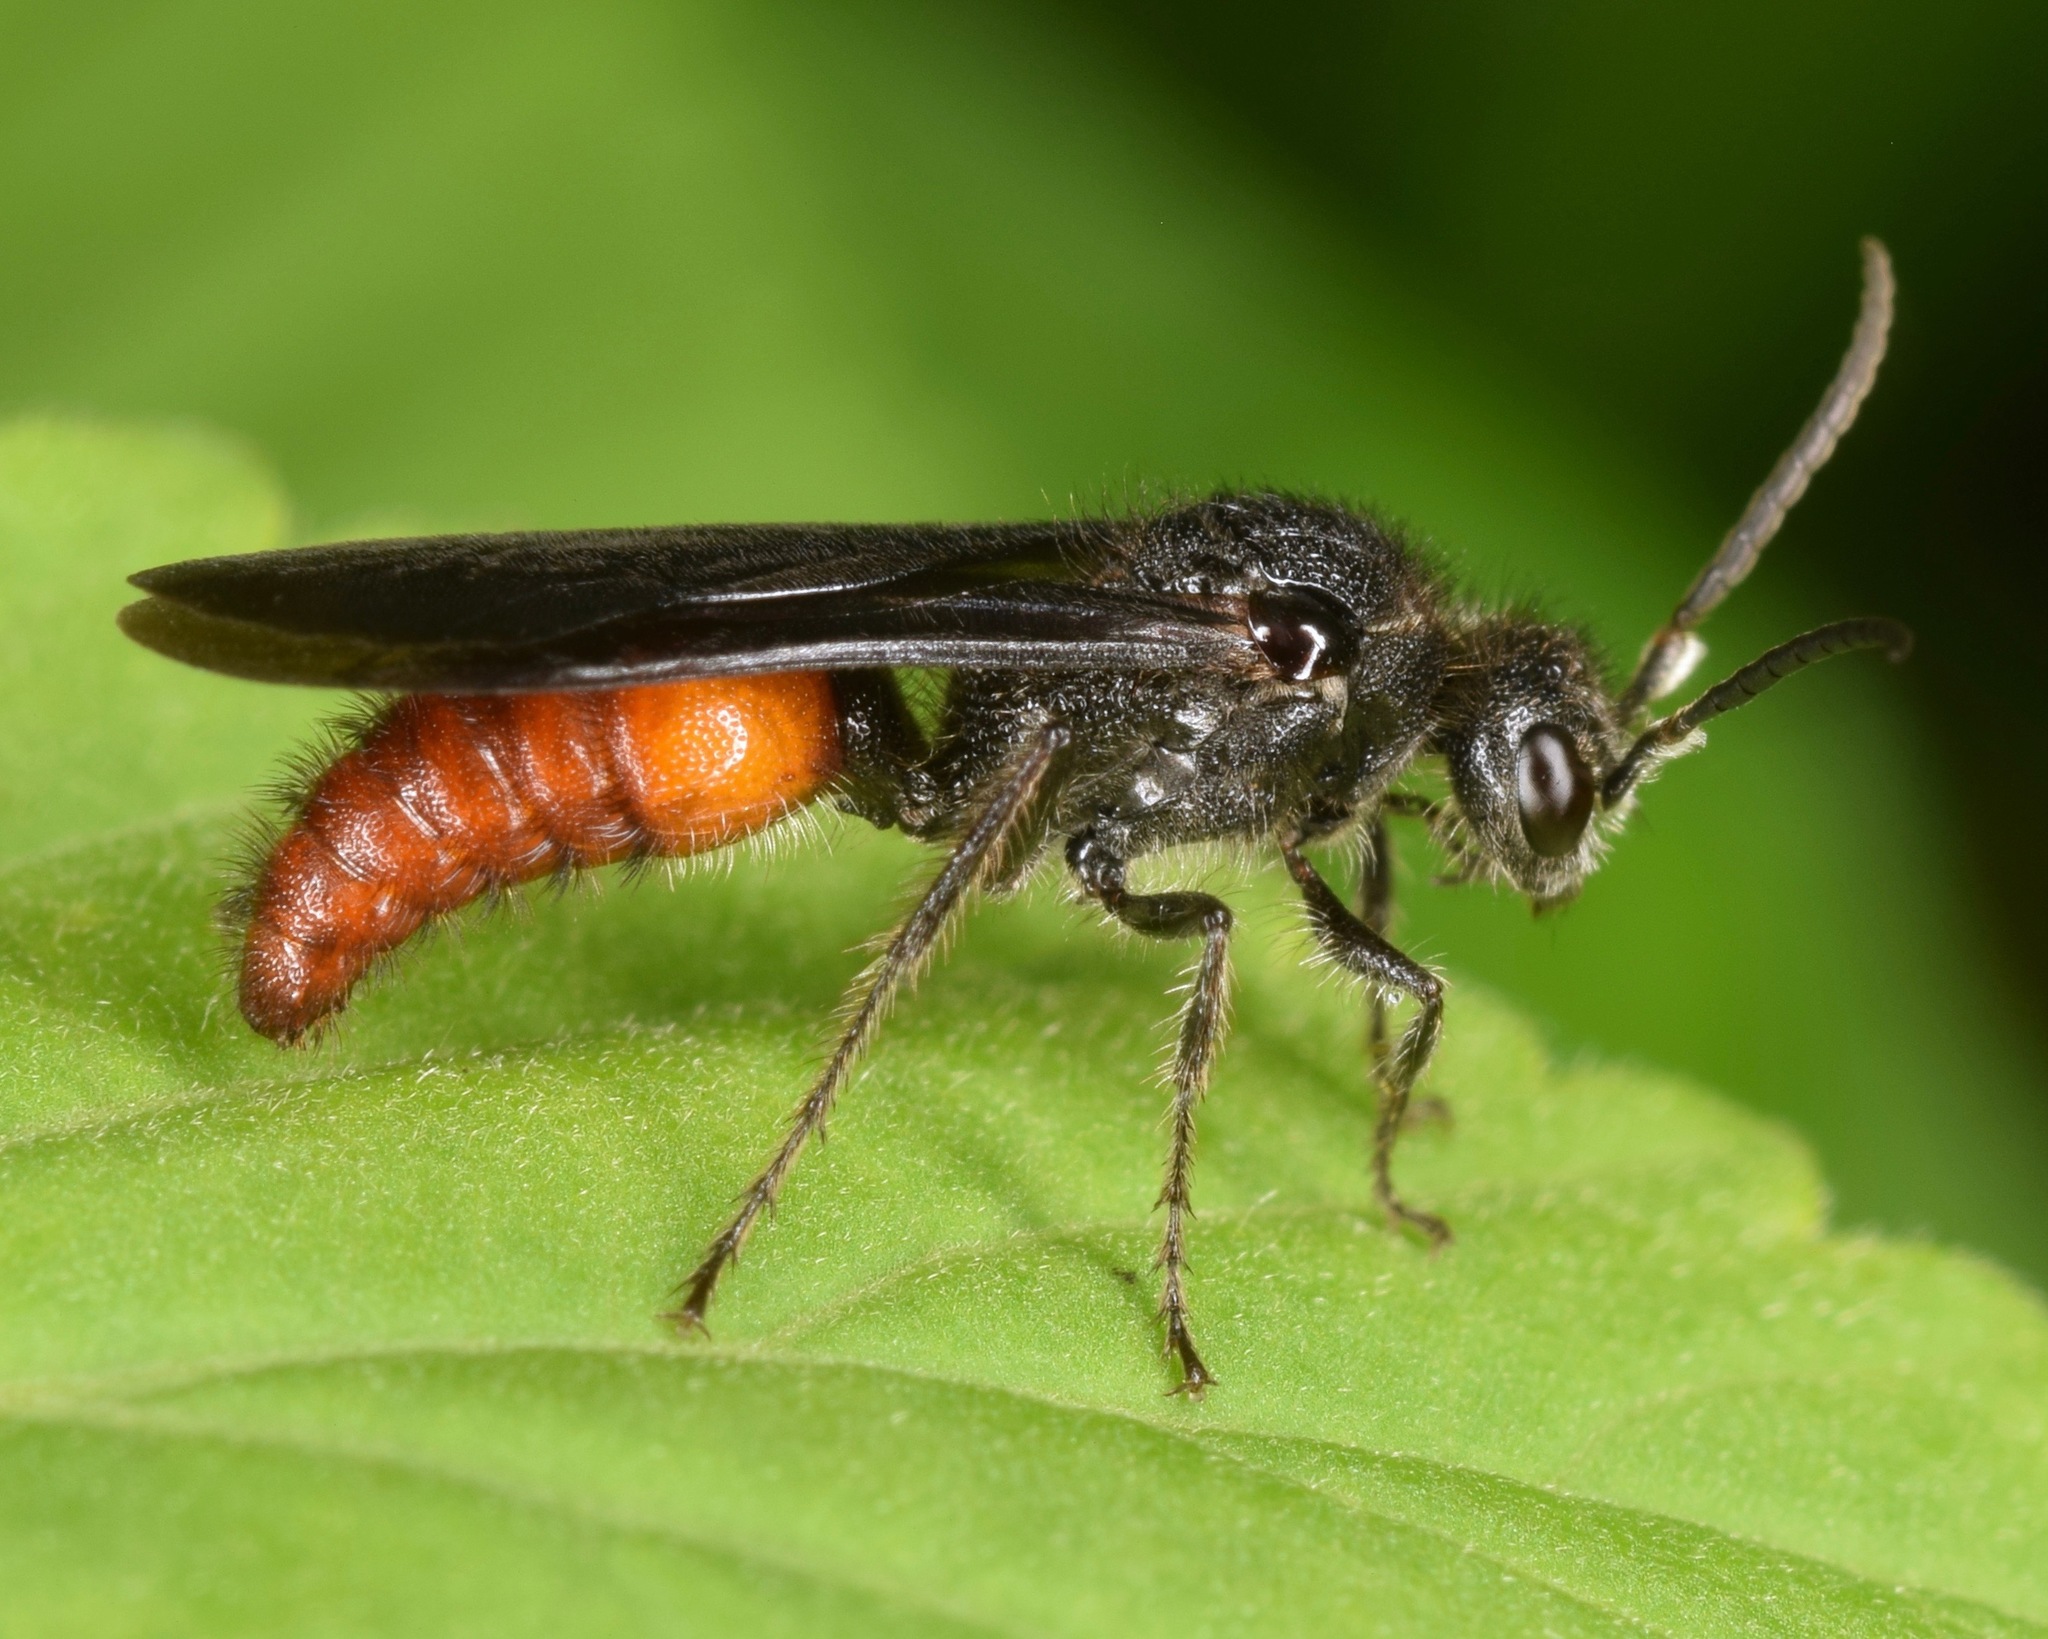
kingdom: Animalia
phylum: Arthropoda
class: Insecta
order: Hymenoptera
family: Mutillidae
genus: Timulla
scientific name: Timulla
